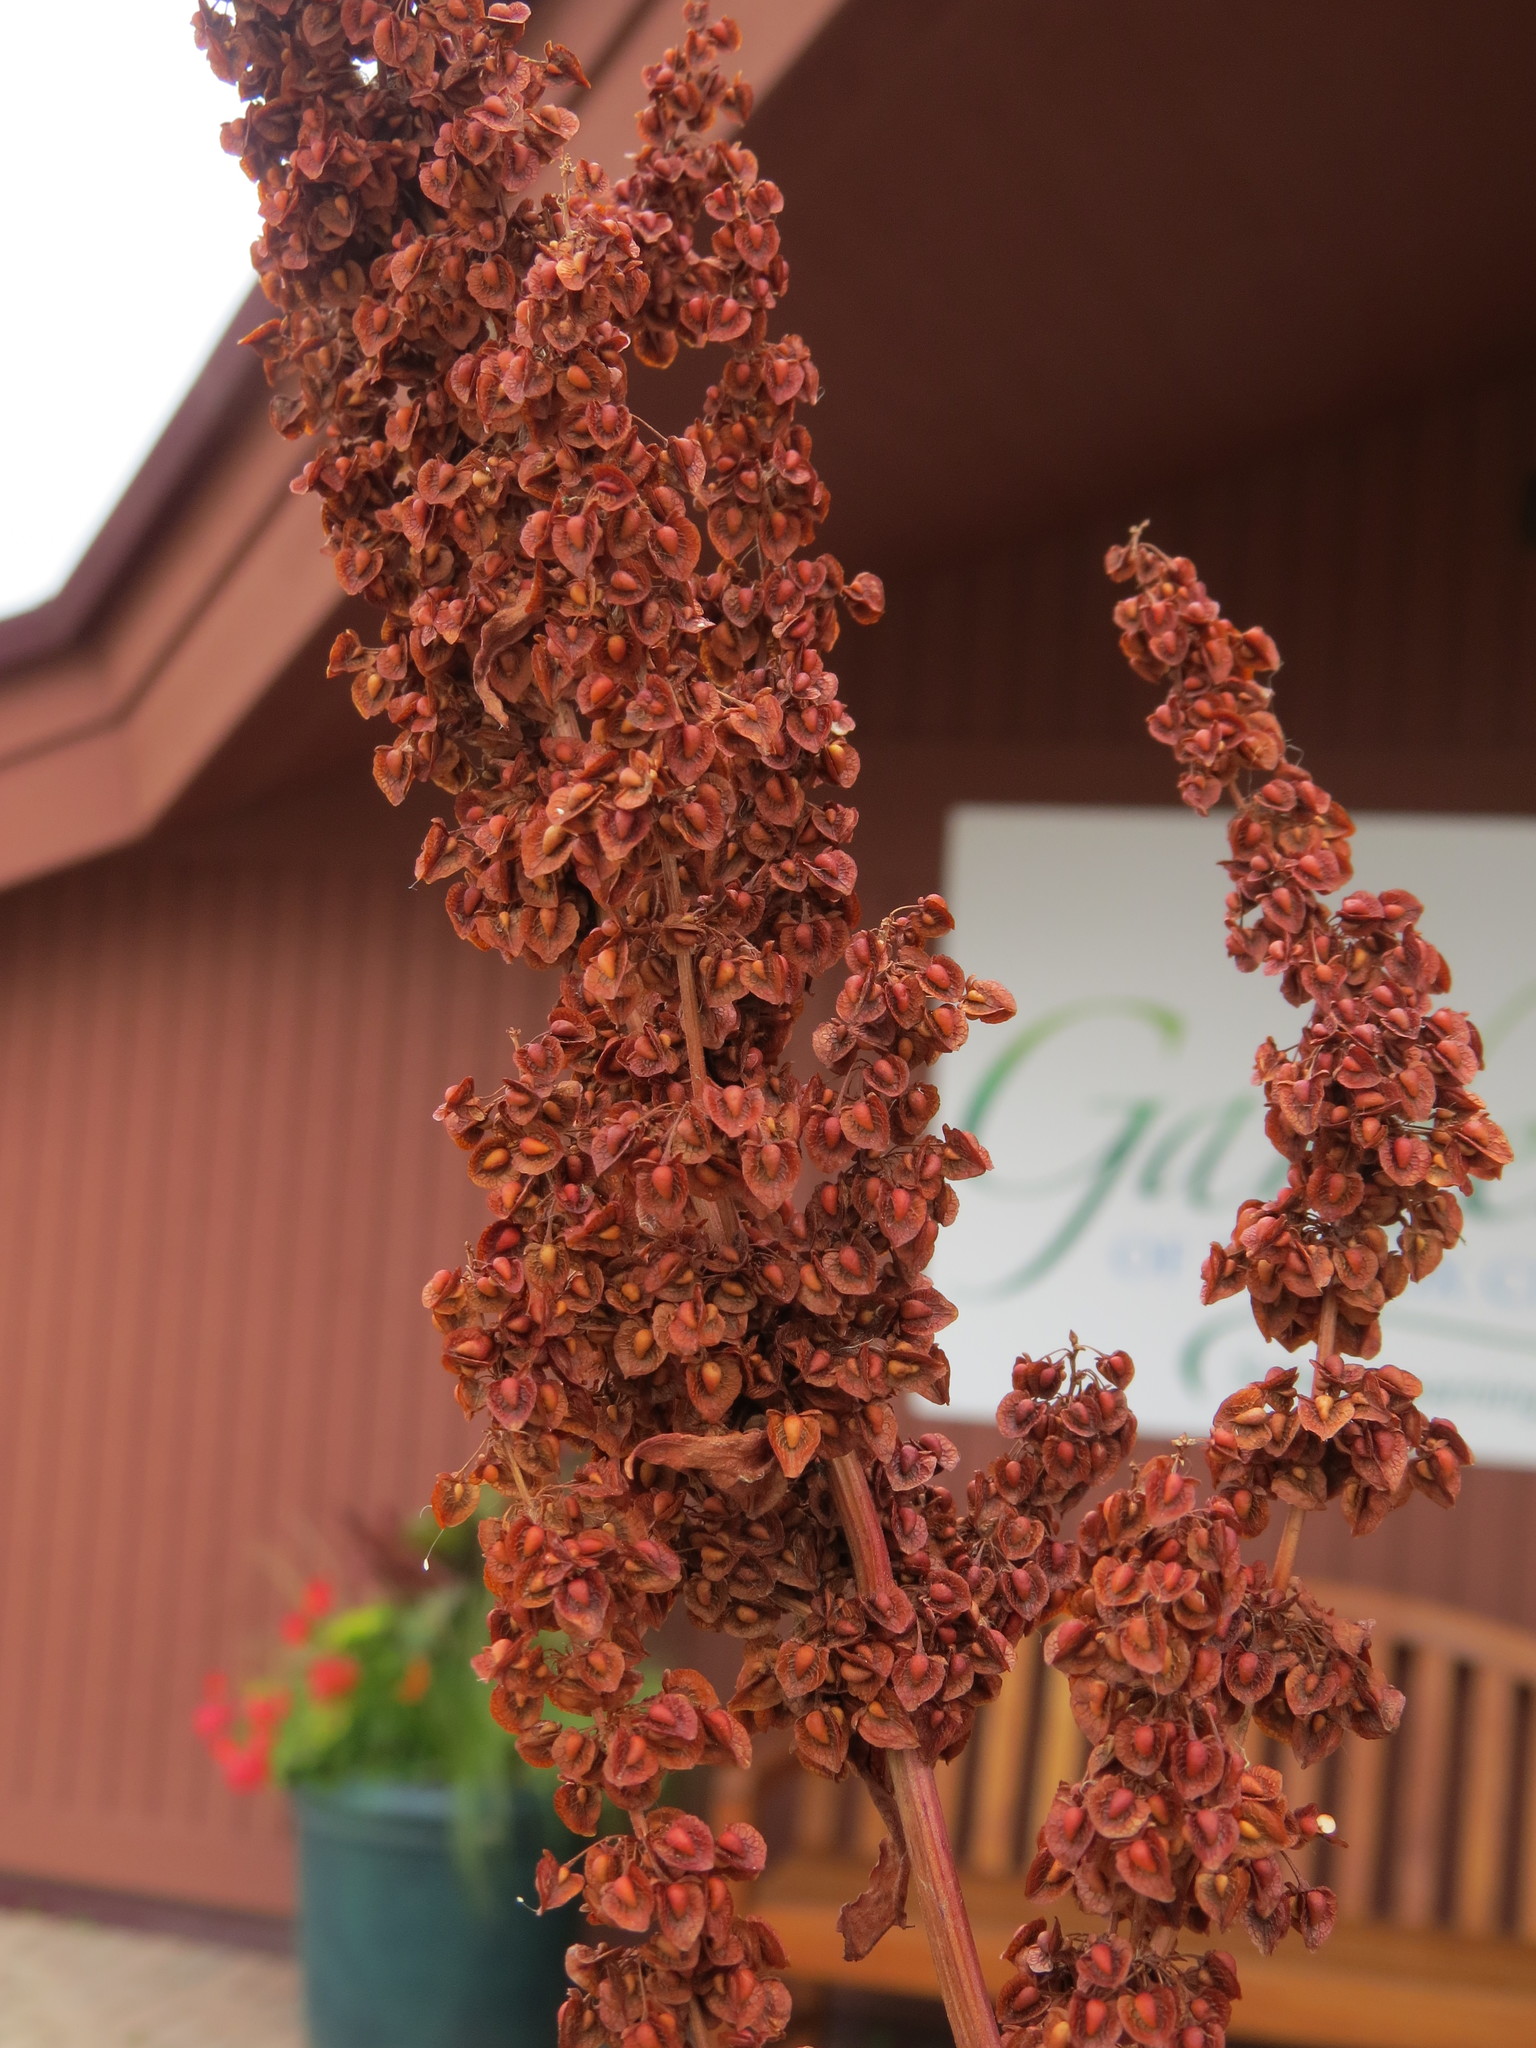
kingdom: Plantae
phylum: Tracheophyta
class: Magnoliopsida
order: Caryophyllales
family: Polygonaceae
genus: Rumex
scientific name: Rumex crispus
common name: Curled dock
